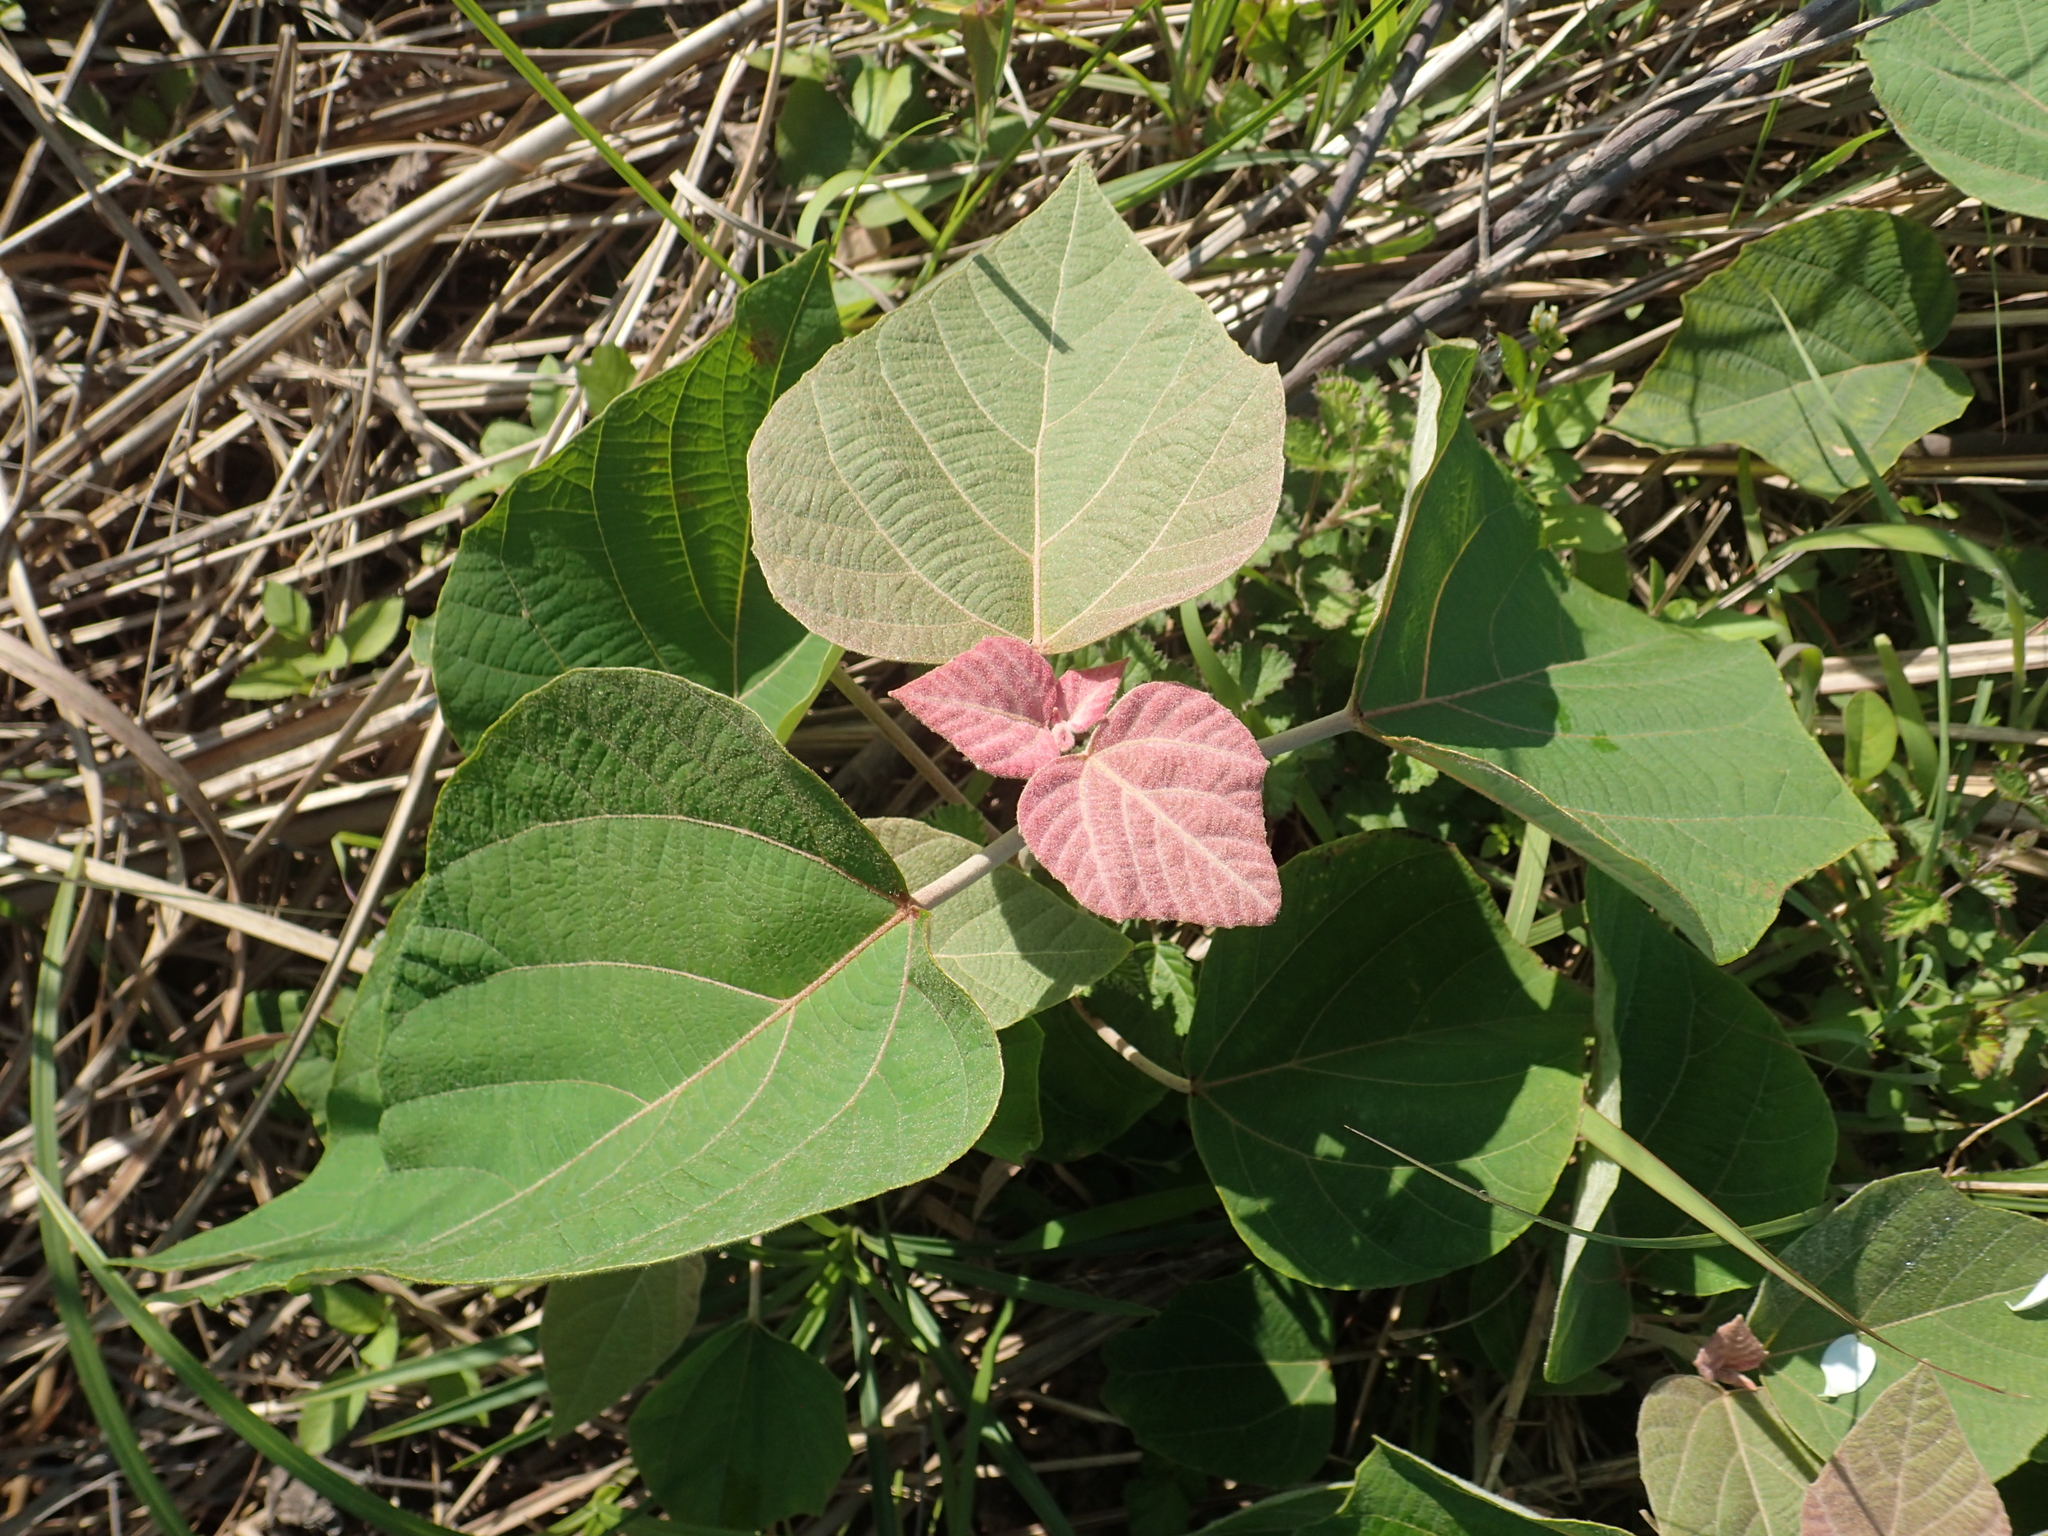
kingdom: Plantae
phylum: Tracheophyta
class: Magnoliopsida
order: Malpighiales
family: Euphorbiaceae
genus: Mallotus
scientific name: Mallotus japonicus
